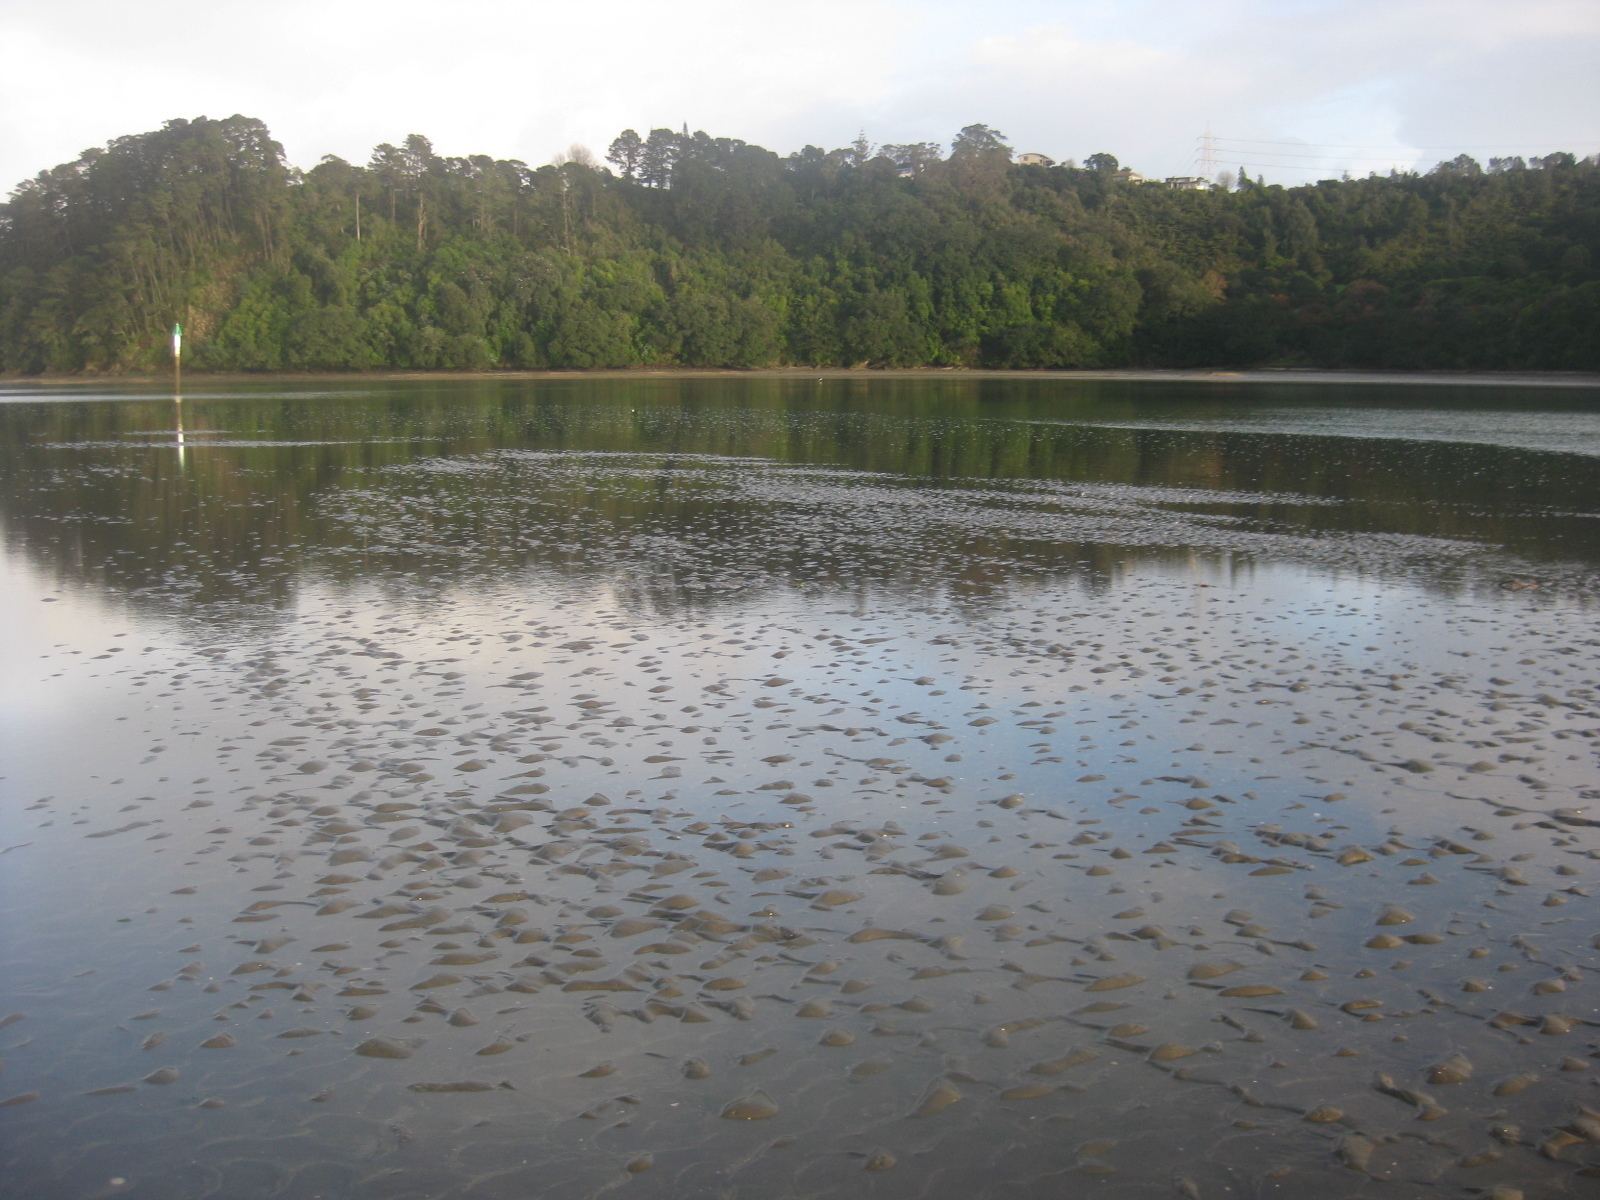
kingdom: Animalia
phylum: Cnidaria
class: Scyphozoa
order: Semaeostomeae
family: Cyaneidae
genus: Desmonema
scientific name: Desmonema gaudichaudi
